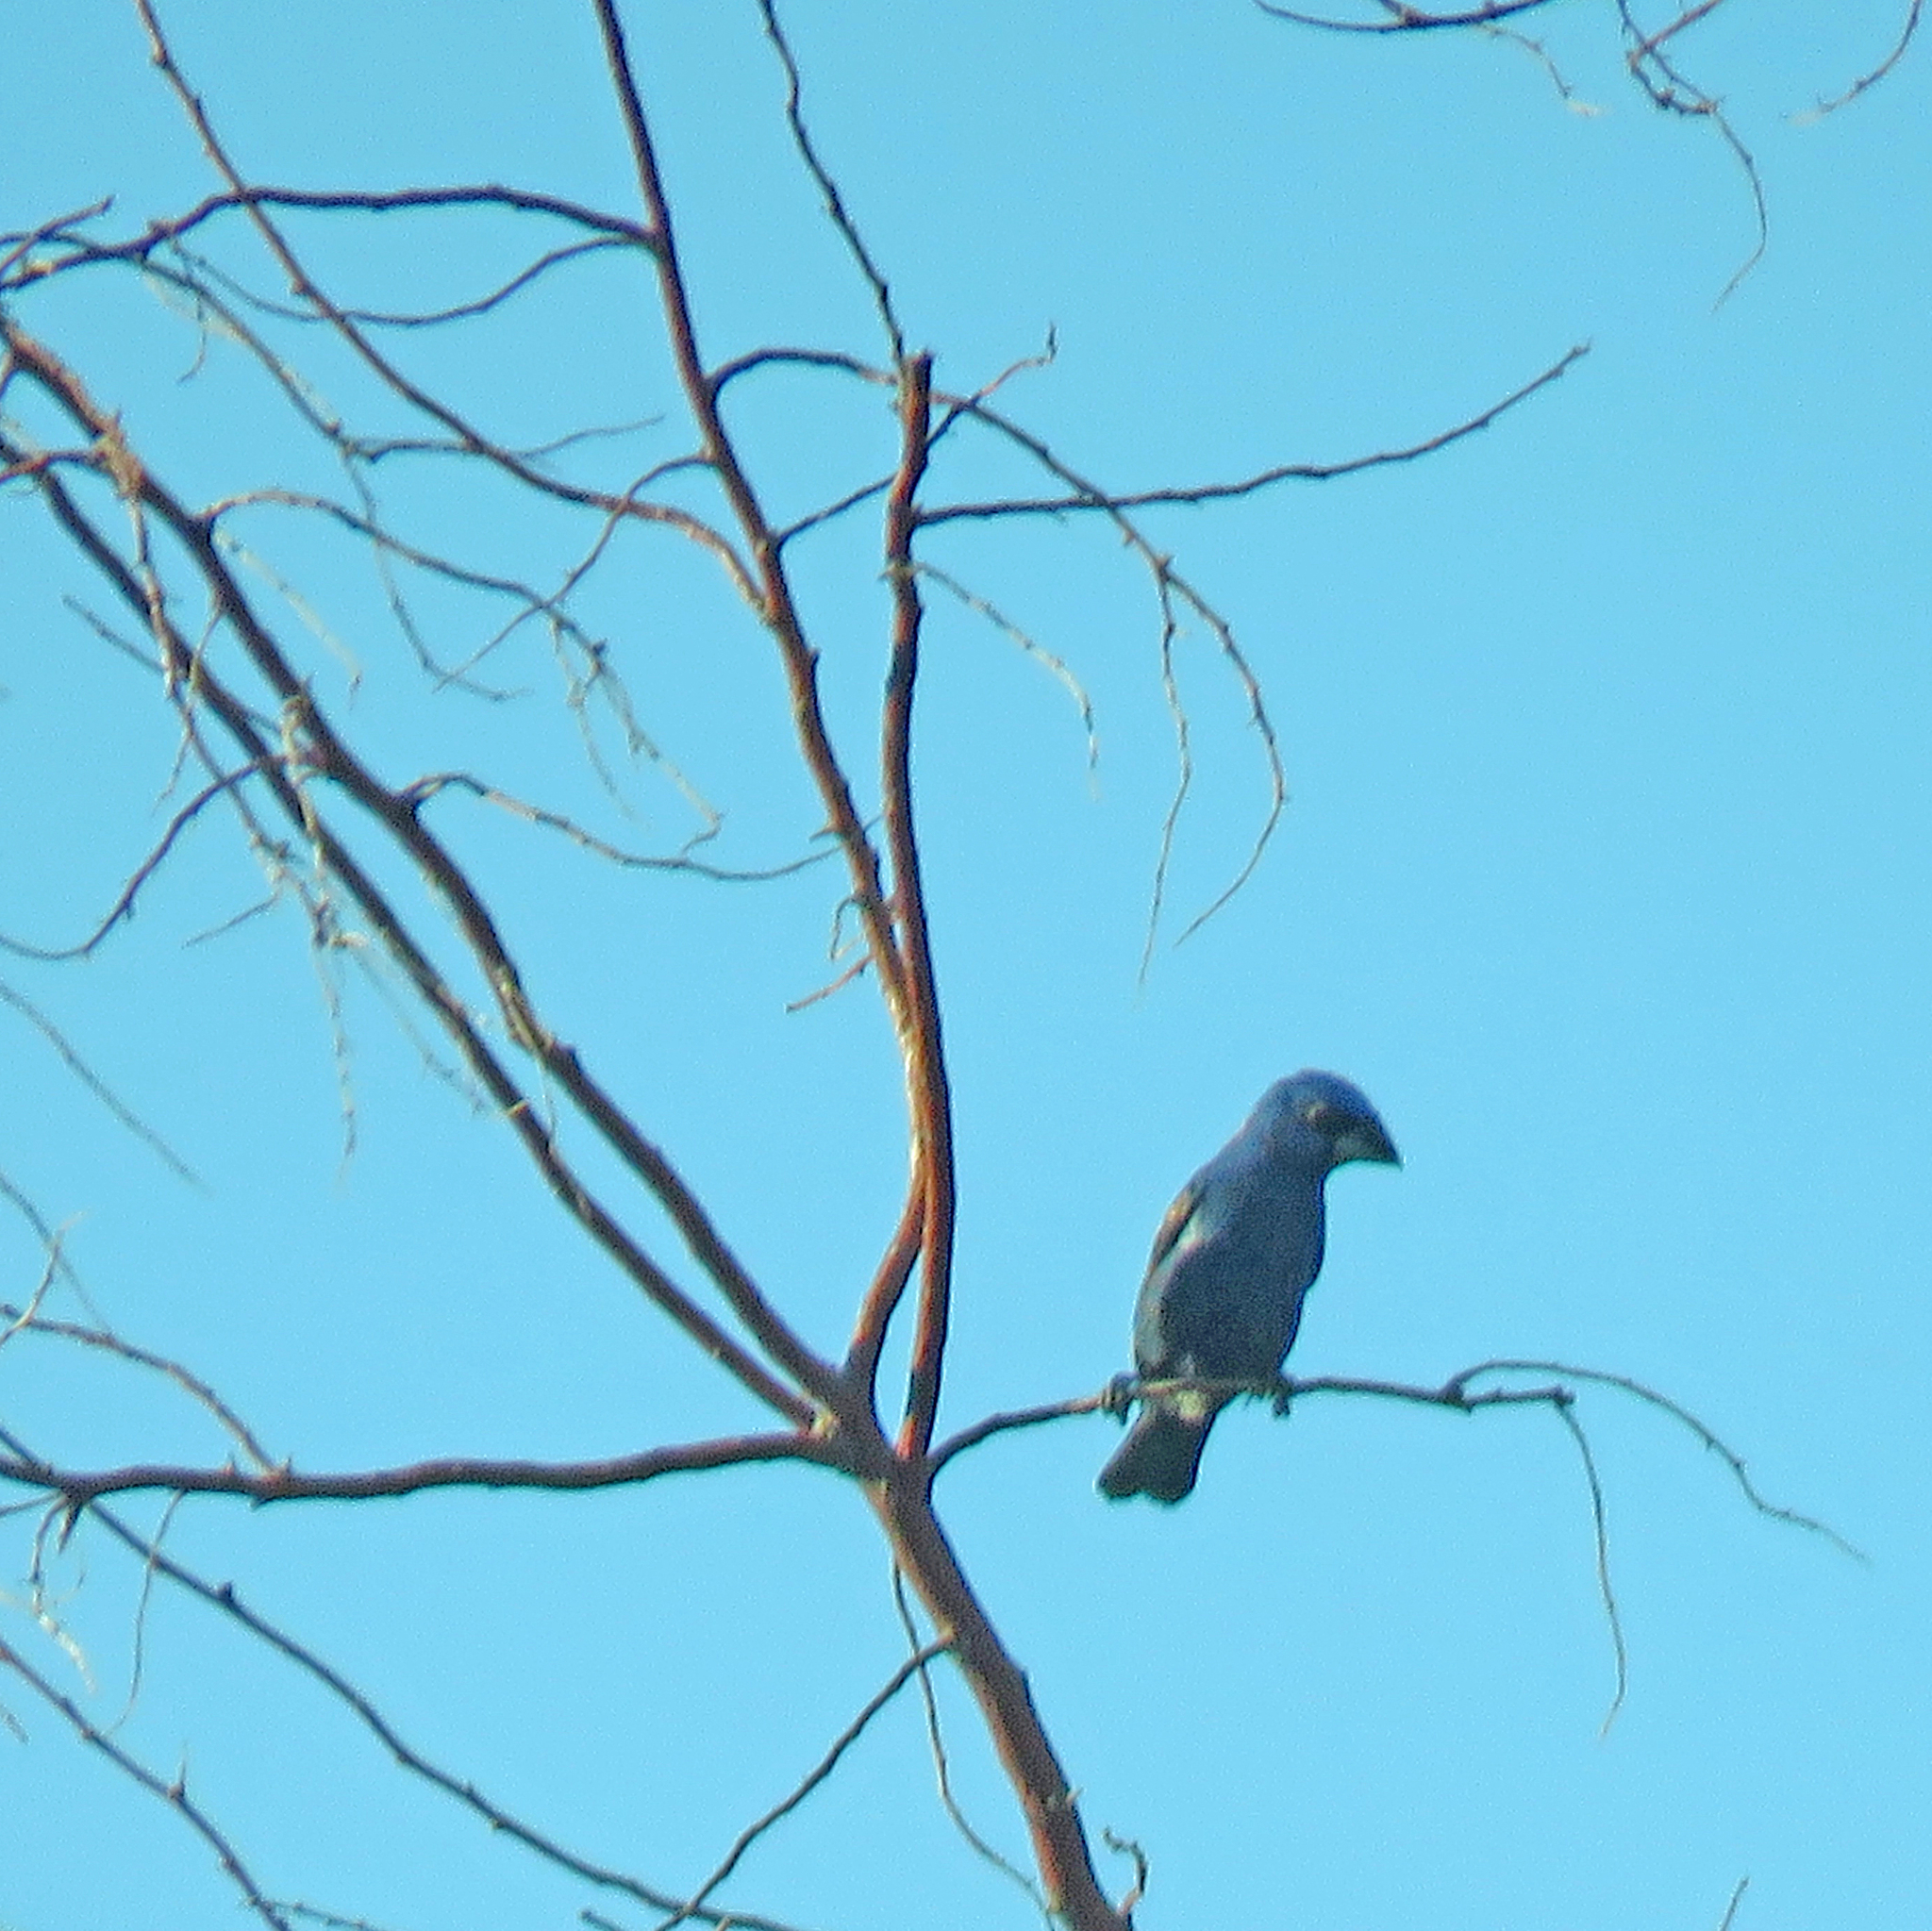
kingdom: Animalia
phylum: Chordata
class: Aves
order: Passeriformes
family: Cardinalidae
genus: Passerina
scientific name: Passerina caerulea
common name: Blue grosbeak
